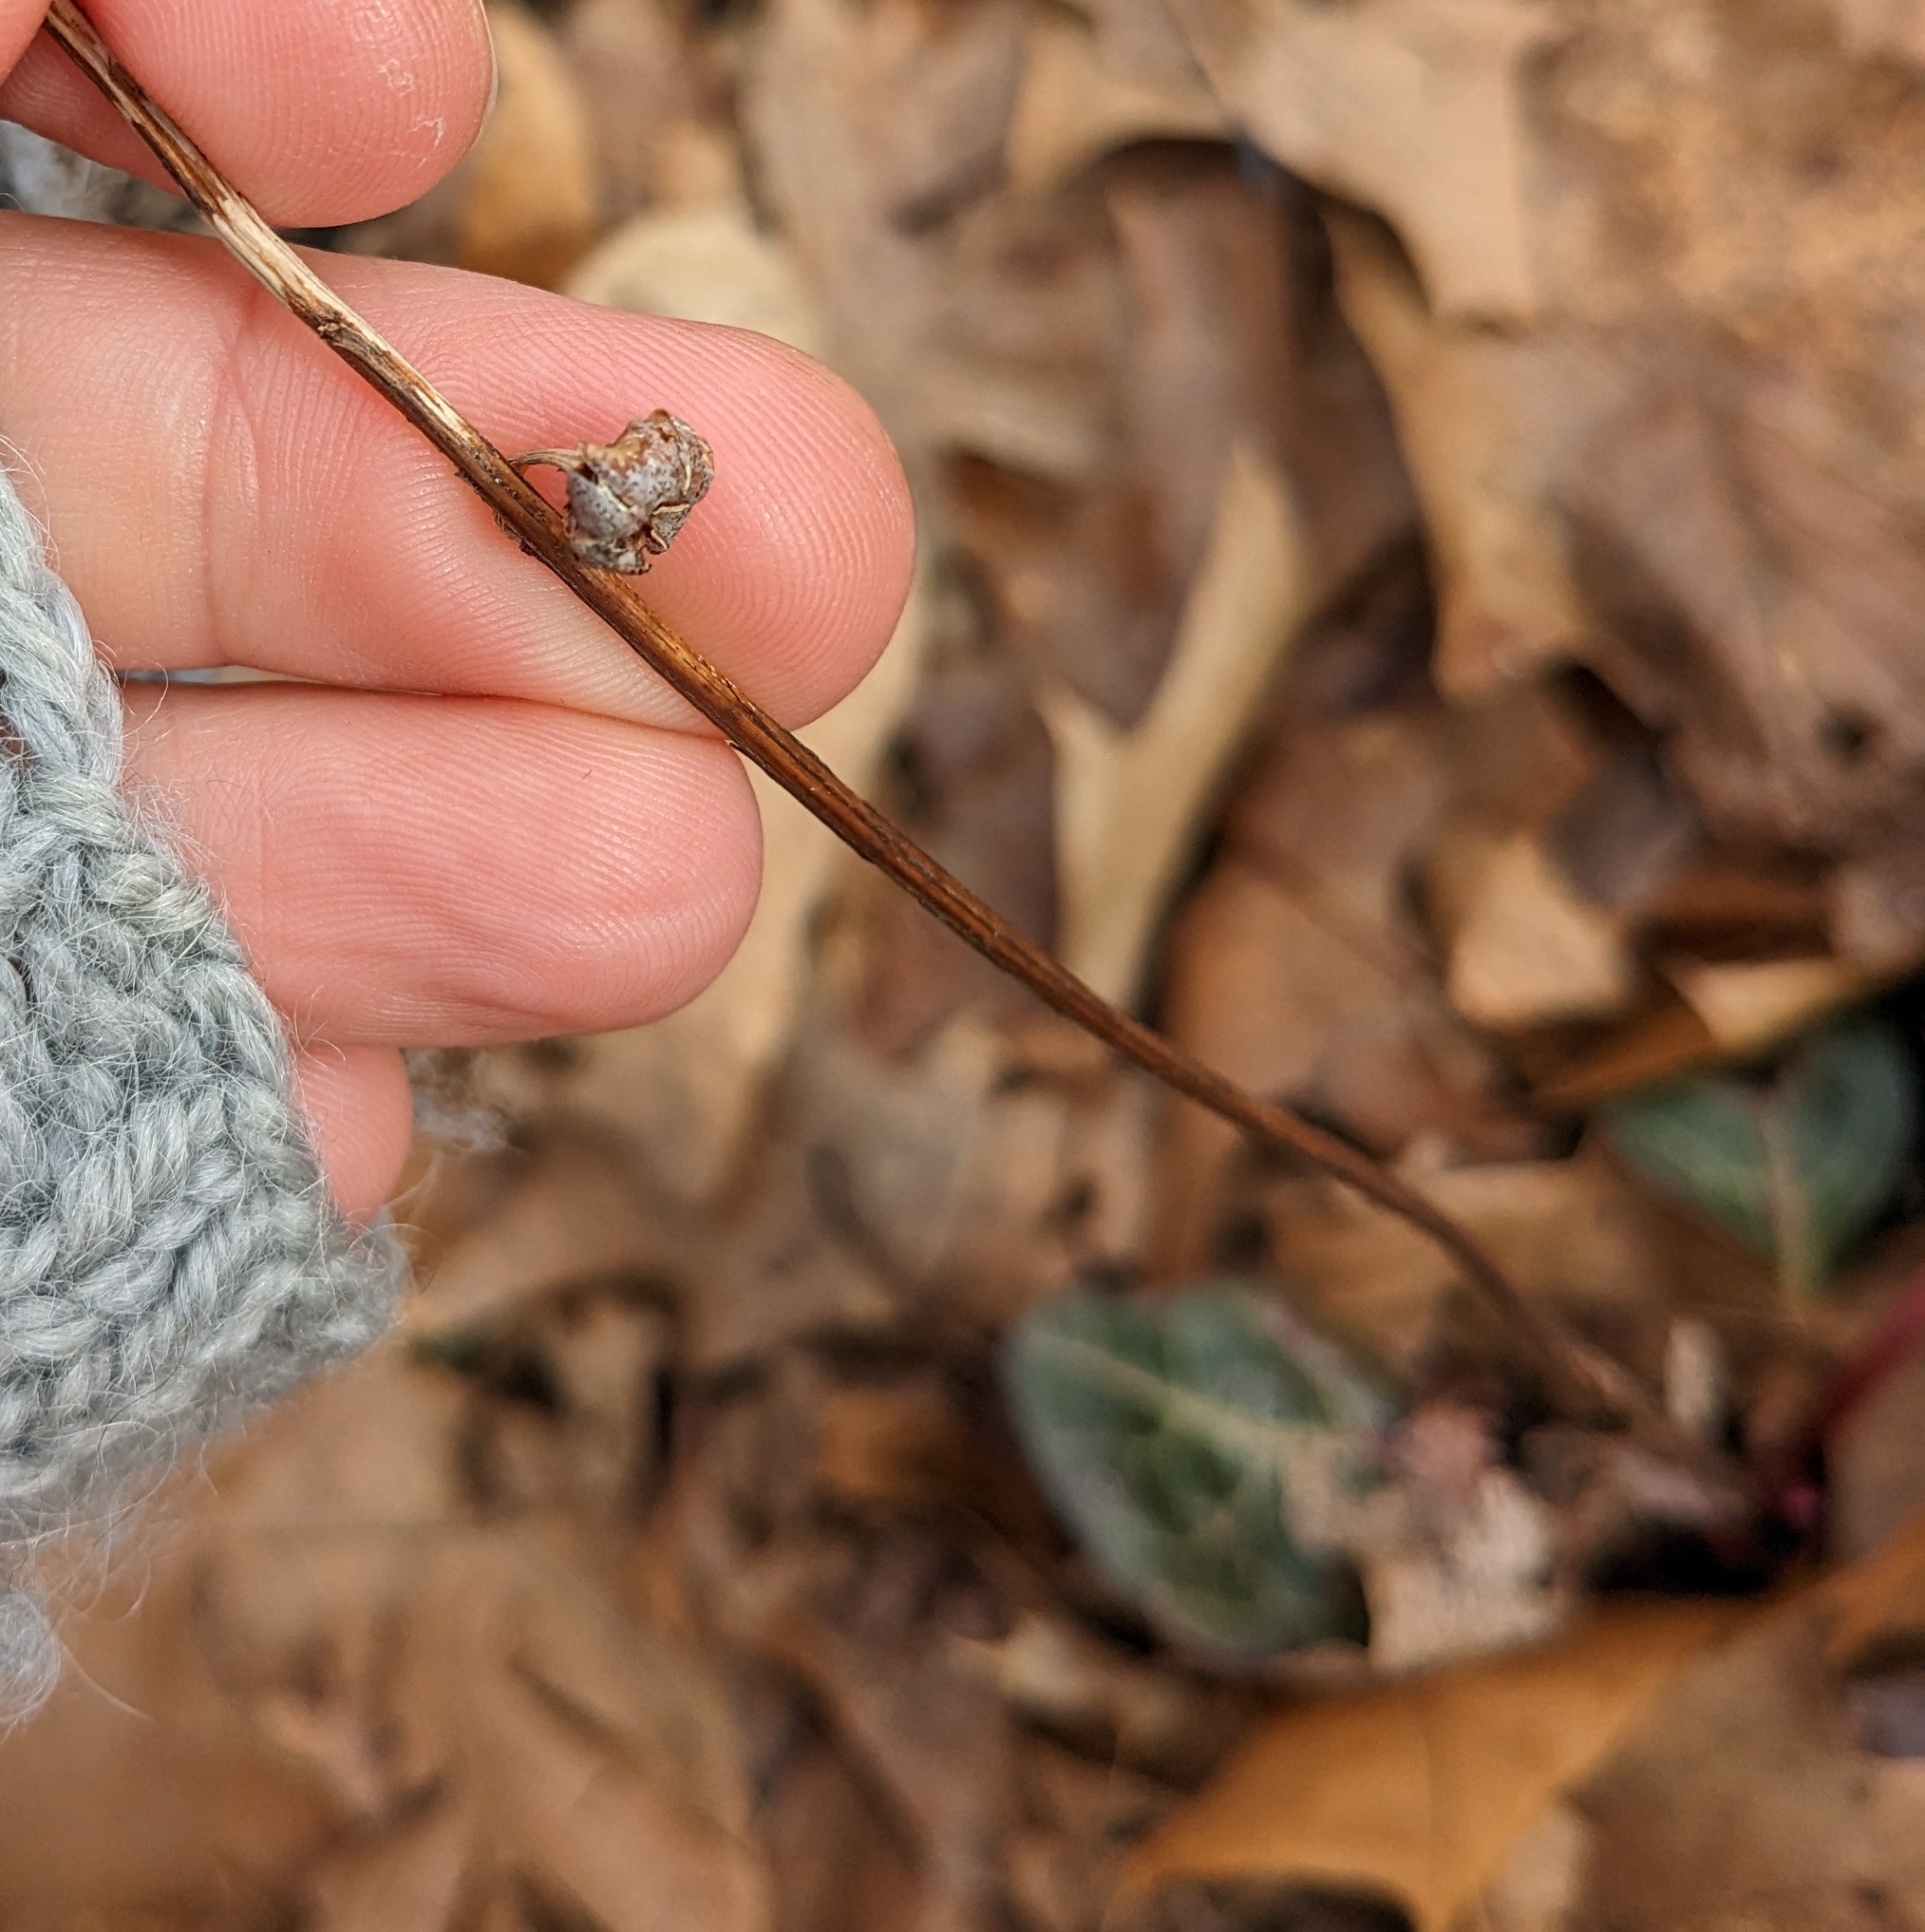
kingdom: Plantae
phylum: Tracheophyta
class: Magnoliopsida
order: Ericales
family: Ericaceae
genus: Pyrola
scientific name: Pyrola americana
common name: American wintergreen
